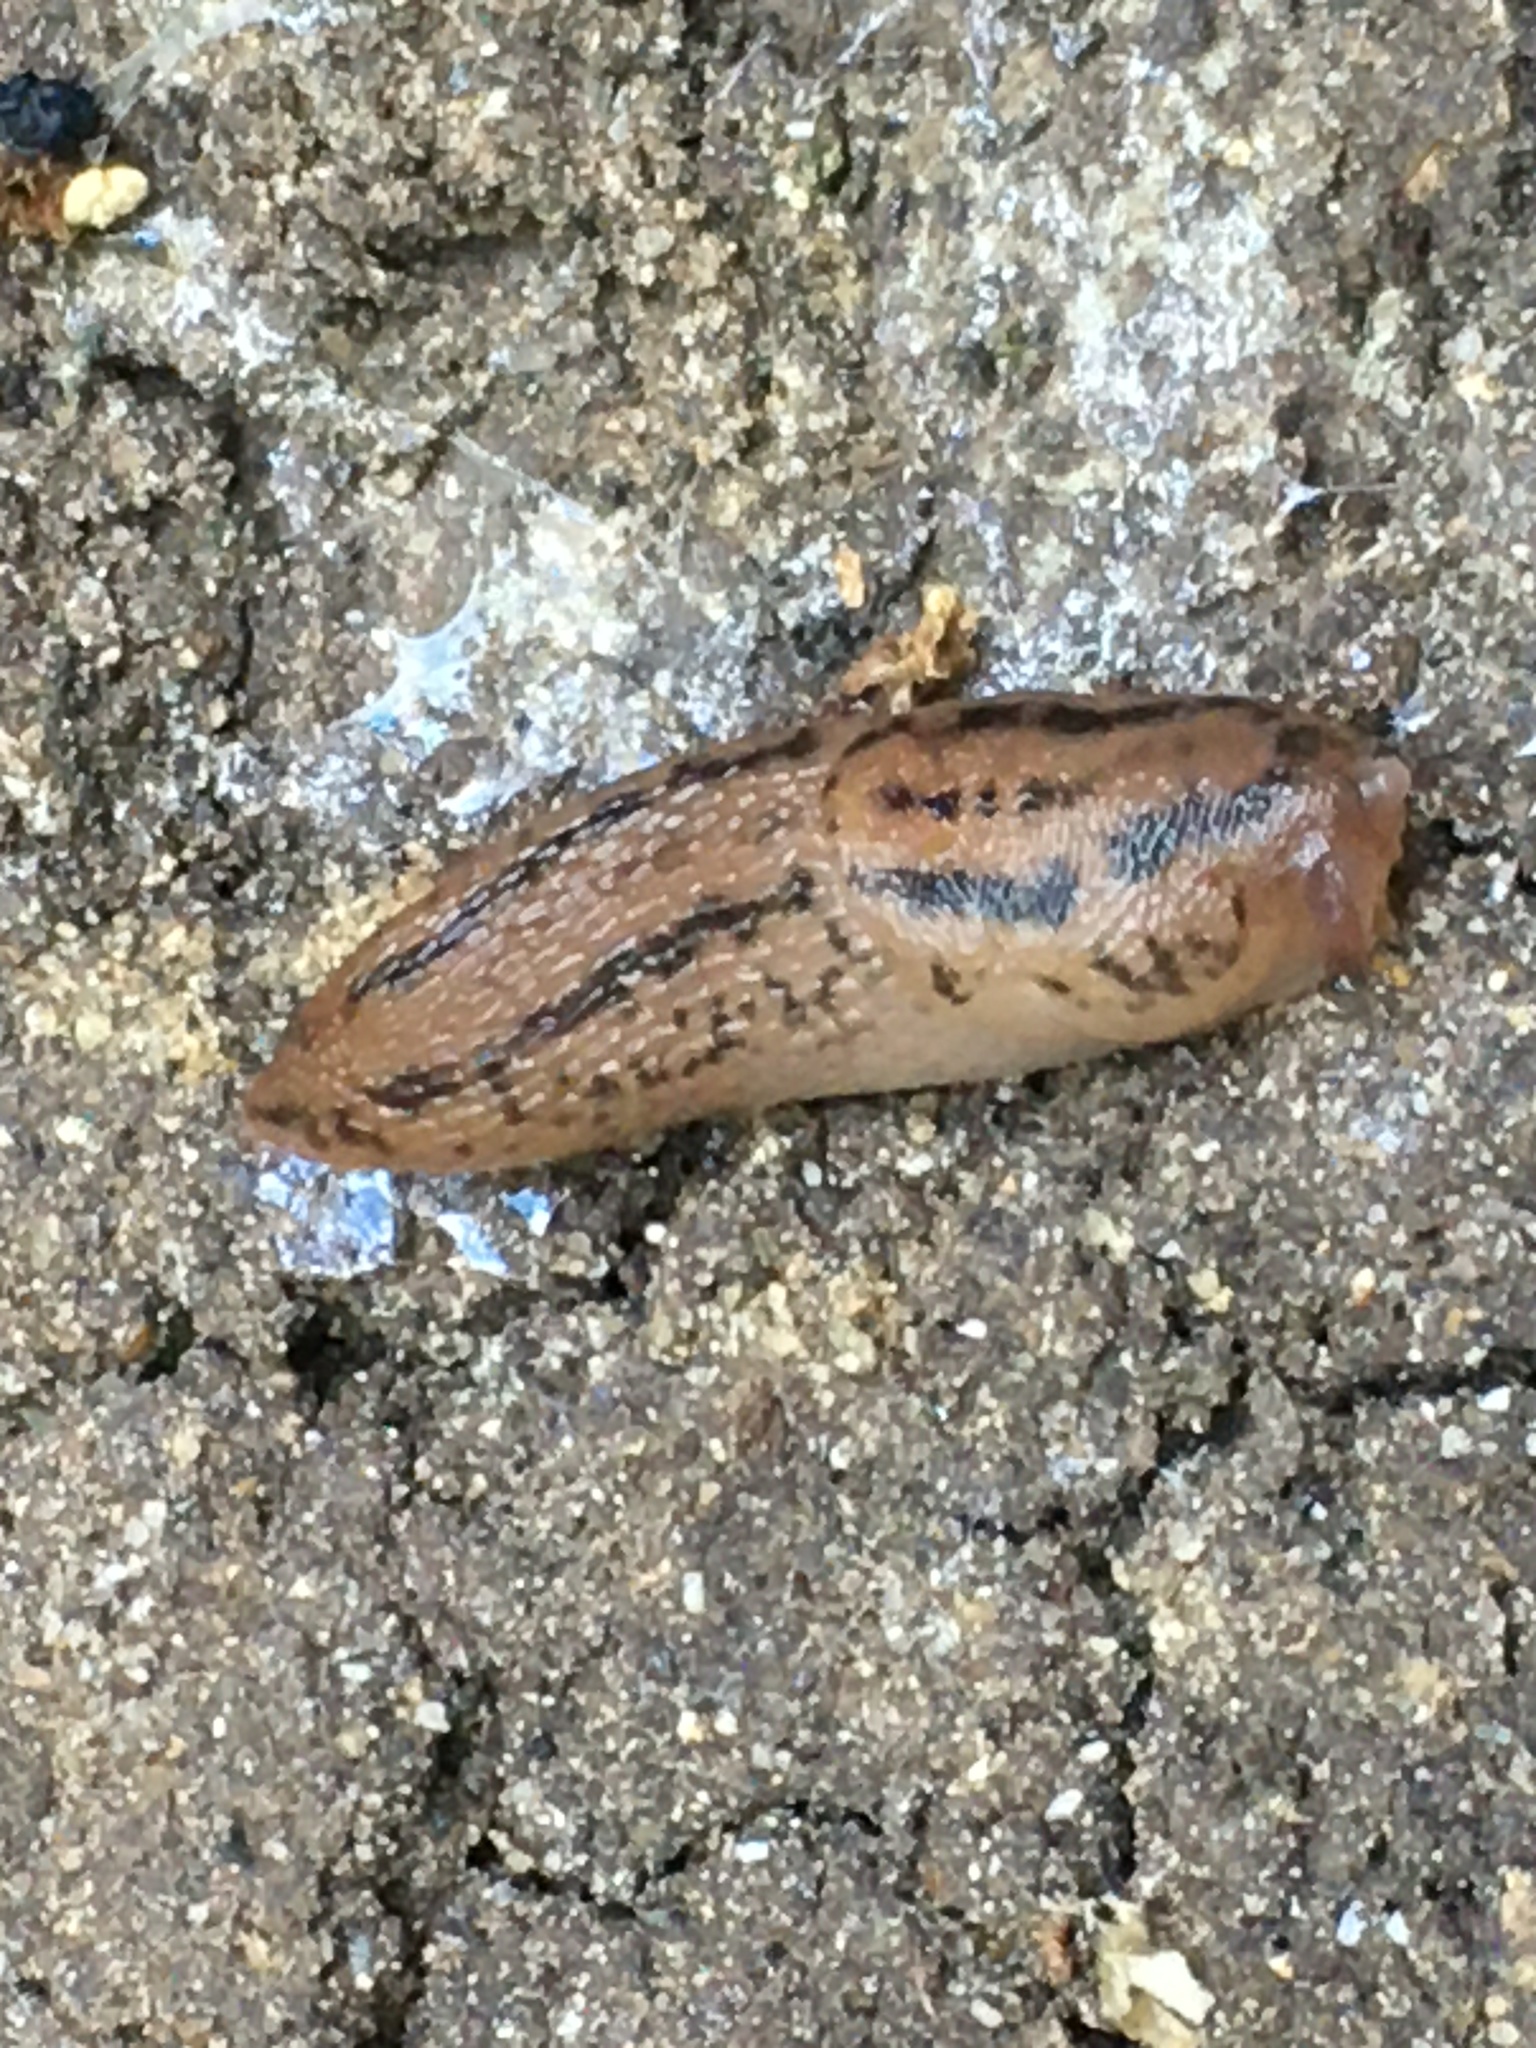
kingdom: Animalia
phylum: Mollusca
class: Gastropoda
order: Stylommatophora
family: Limacidae
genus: Ambigolimax
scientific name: Ambigolimax
